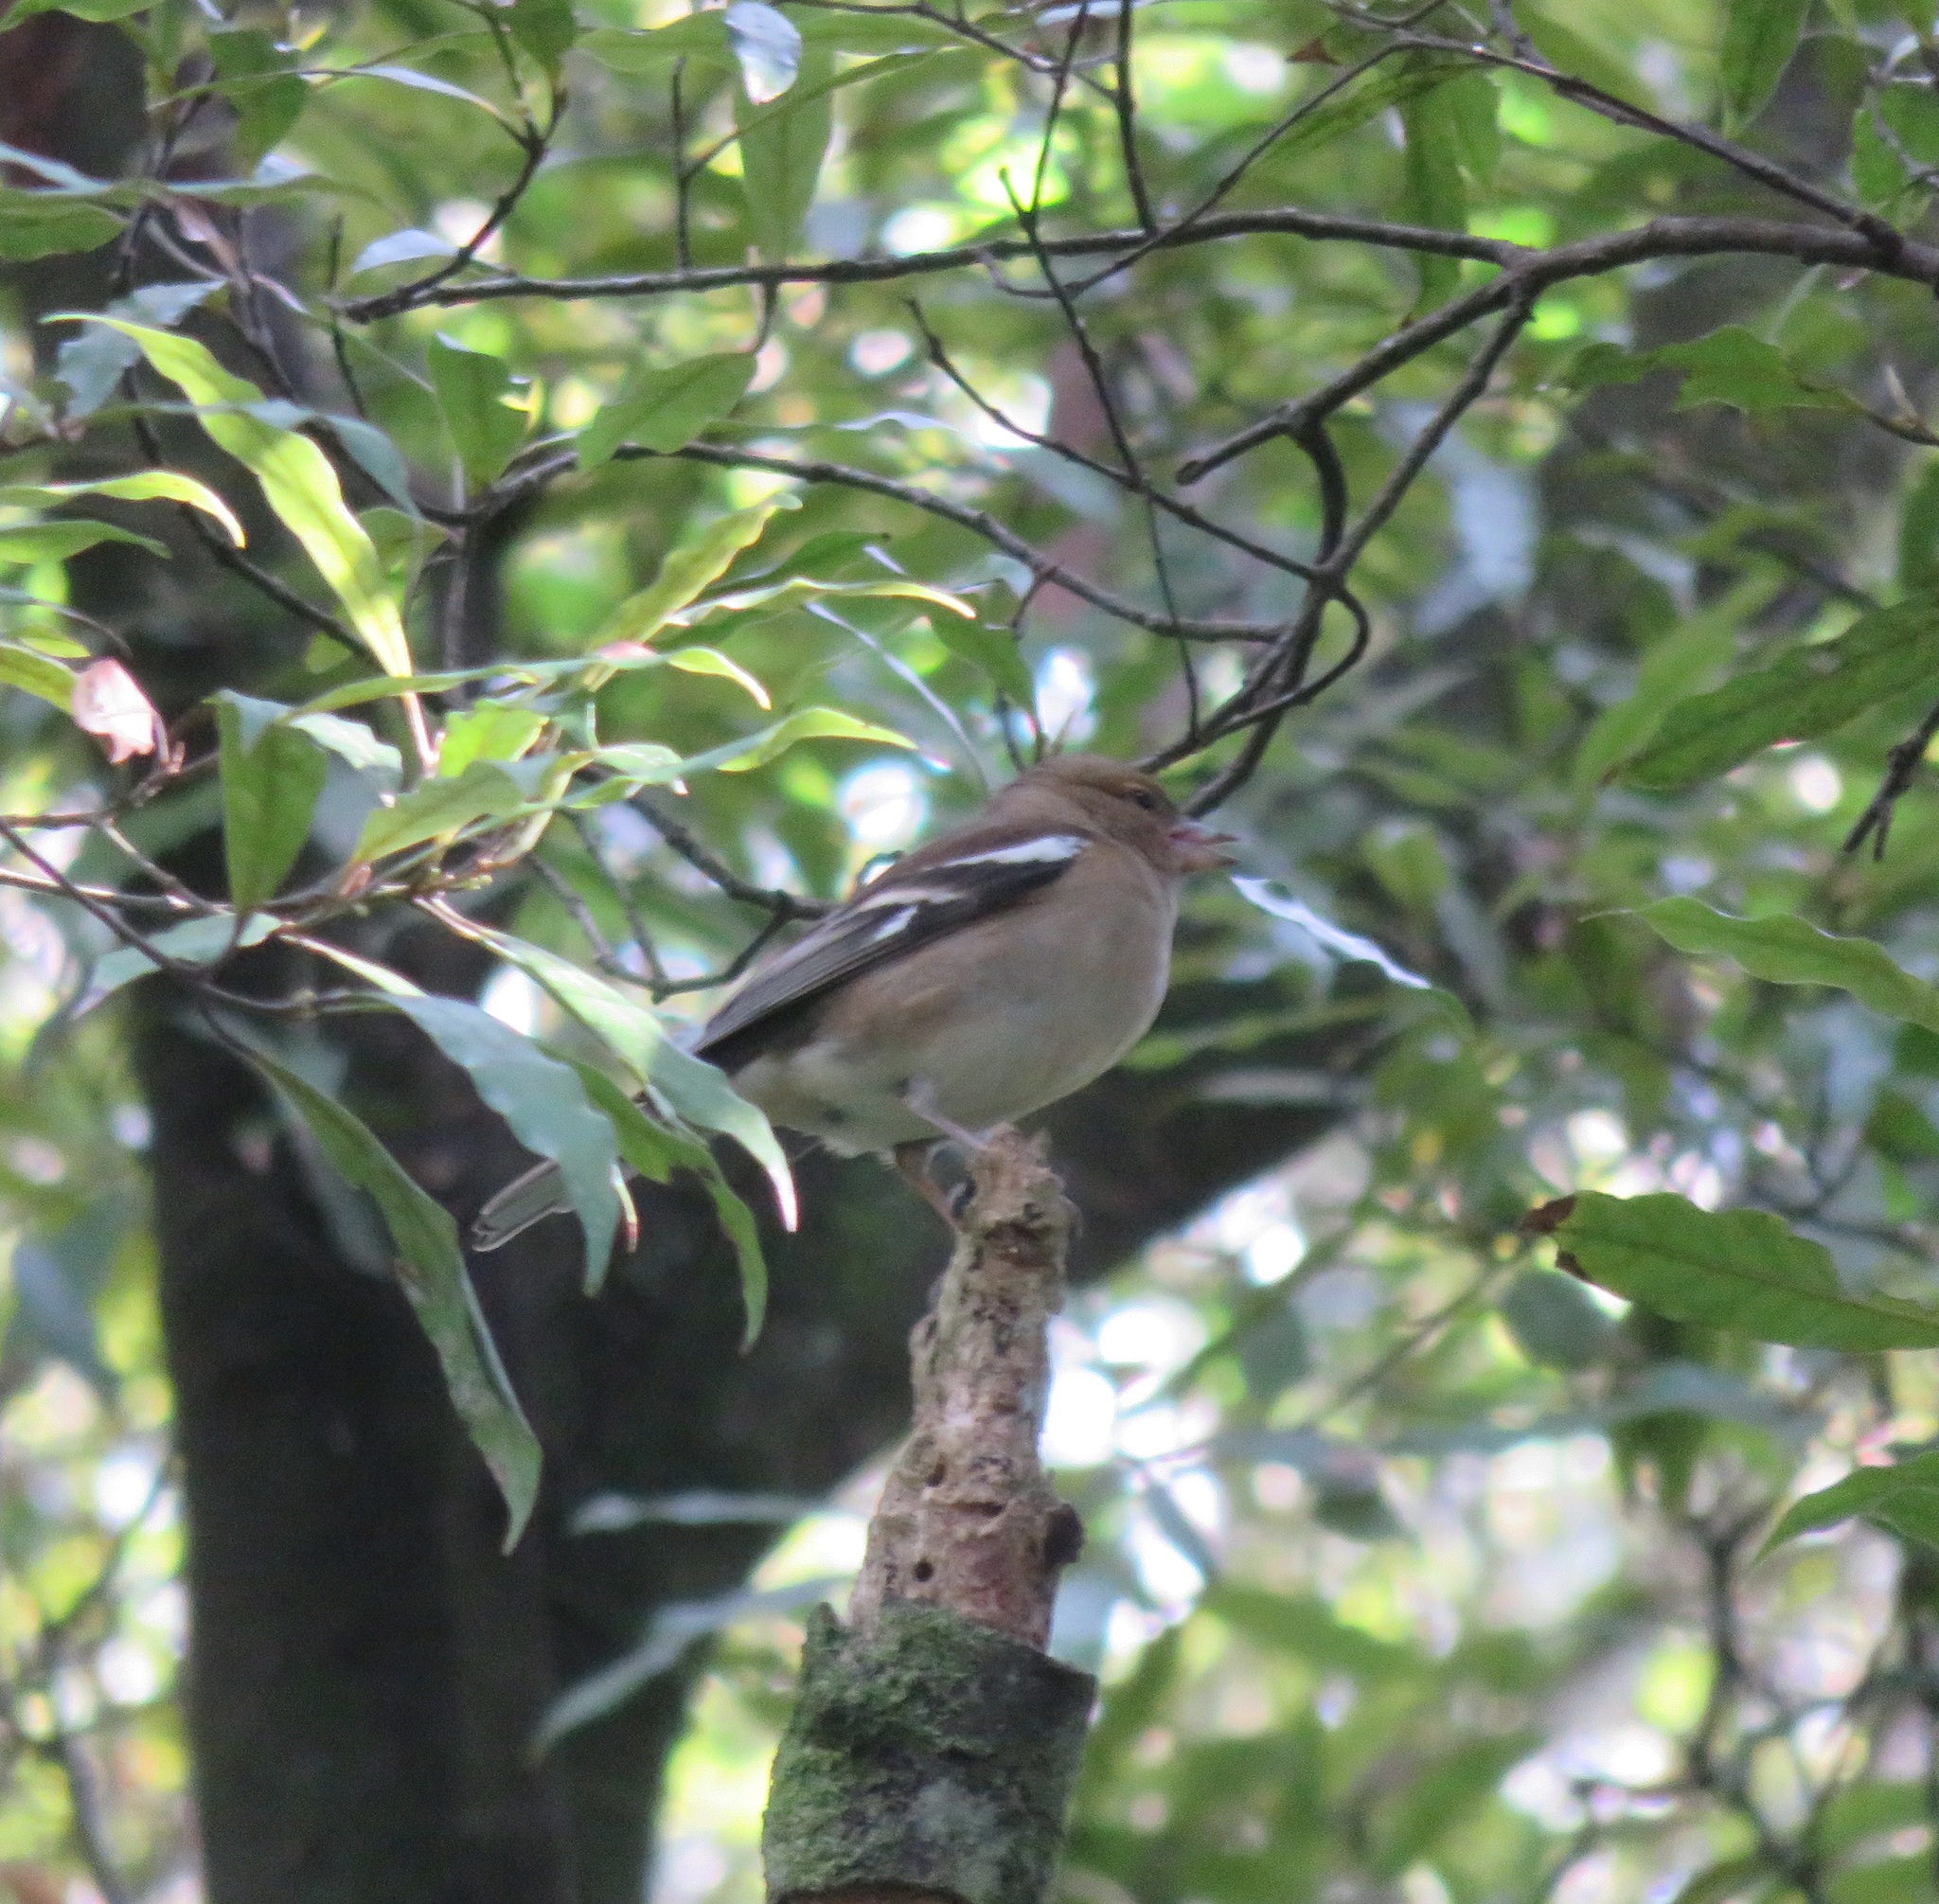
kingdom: Animalia
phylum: Chordata
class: Aves
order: Passeriformes
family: Fringillidae
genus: Fringilla
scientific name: Fringilla coelebs
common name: Common chaffinch
